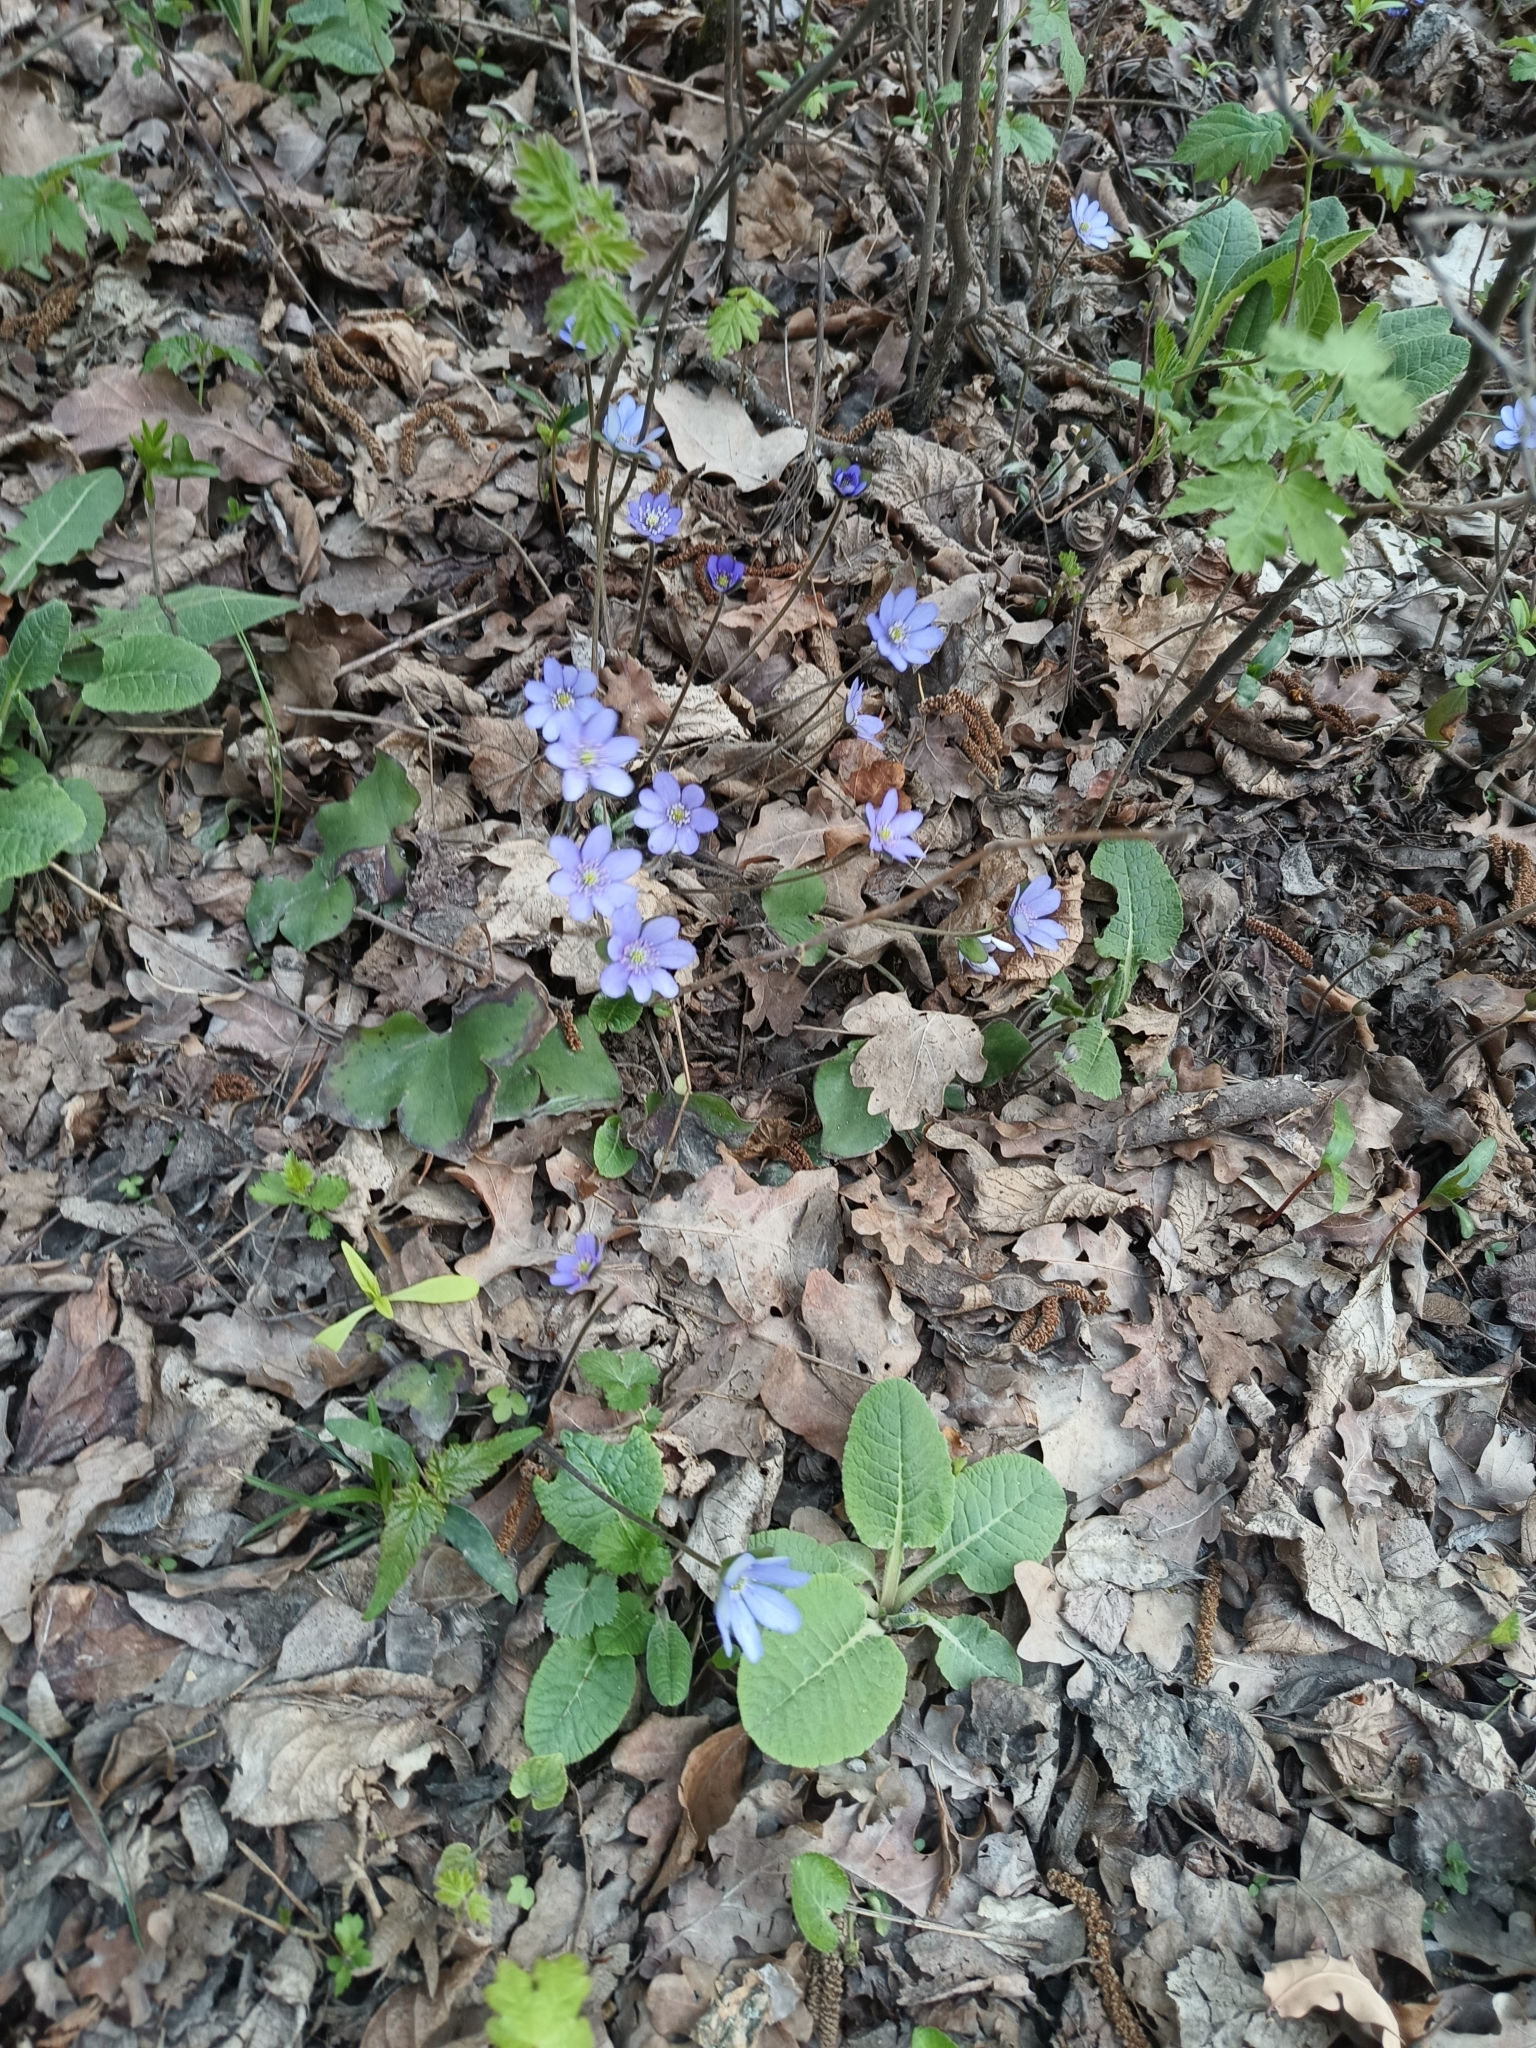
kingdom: Plantae
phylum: Tracheophyta
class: Magnoliopsida
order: Ranunculales
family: Ranunculaceae
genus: Hepatica
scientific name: Hepatica nobilis
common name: Liverleaf
